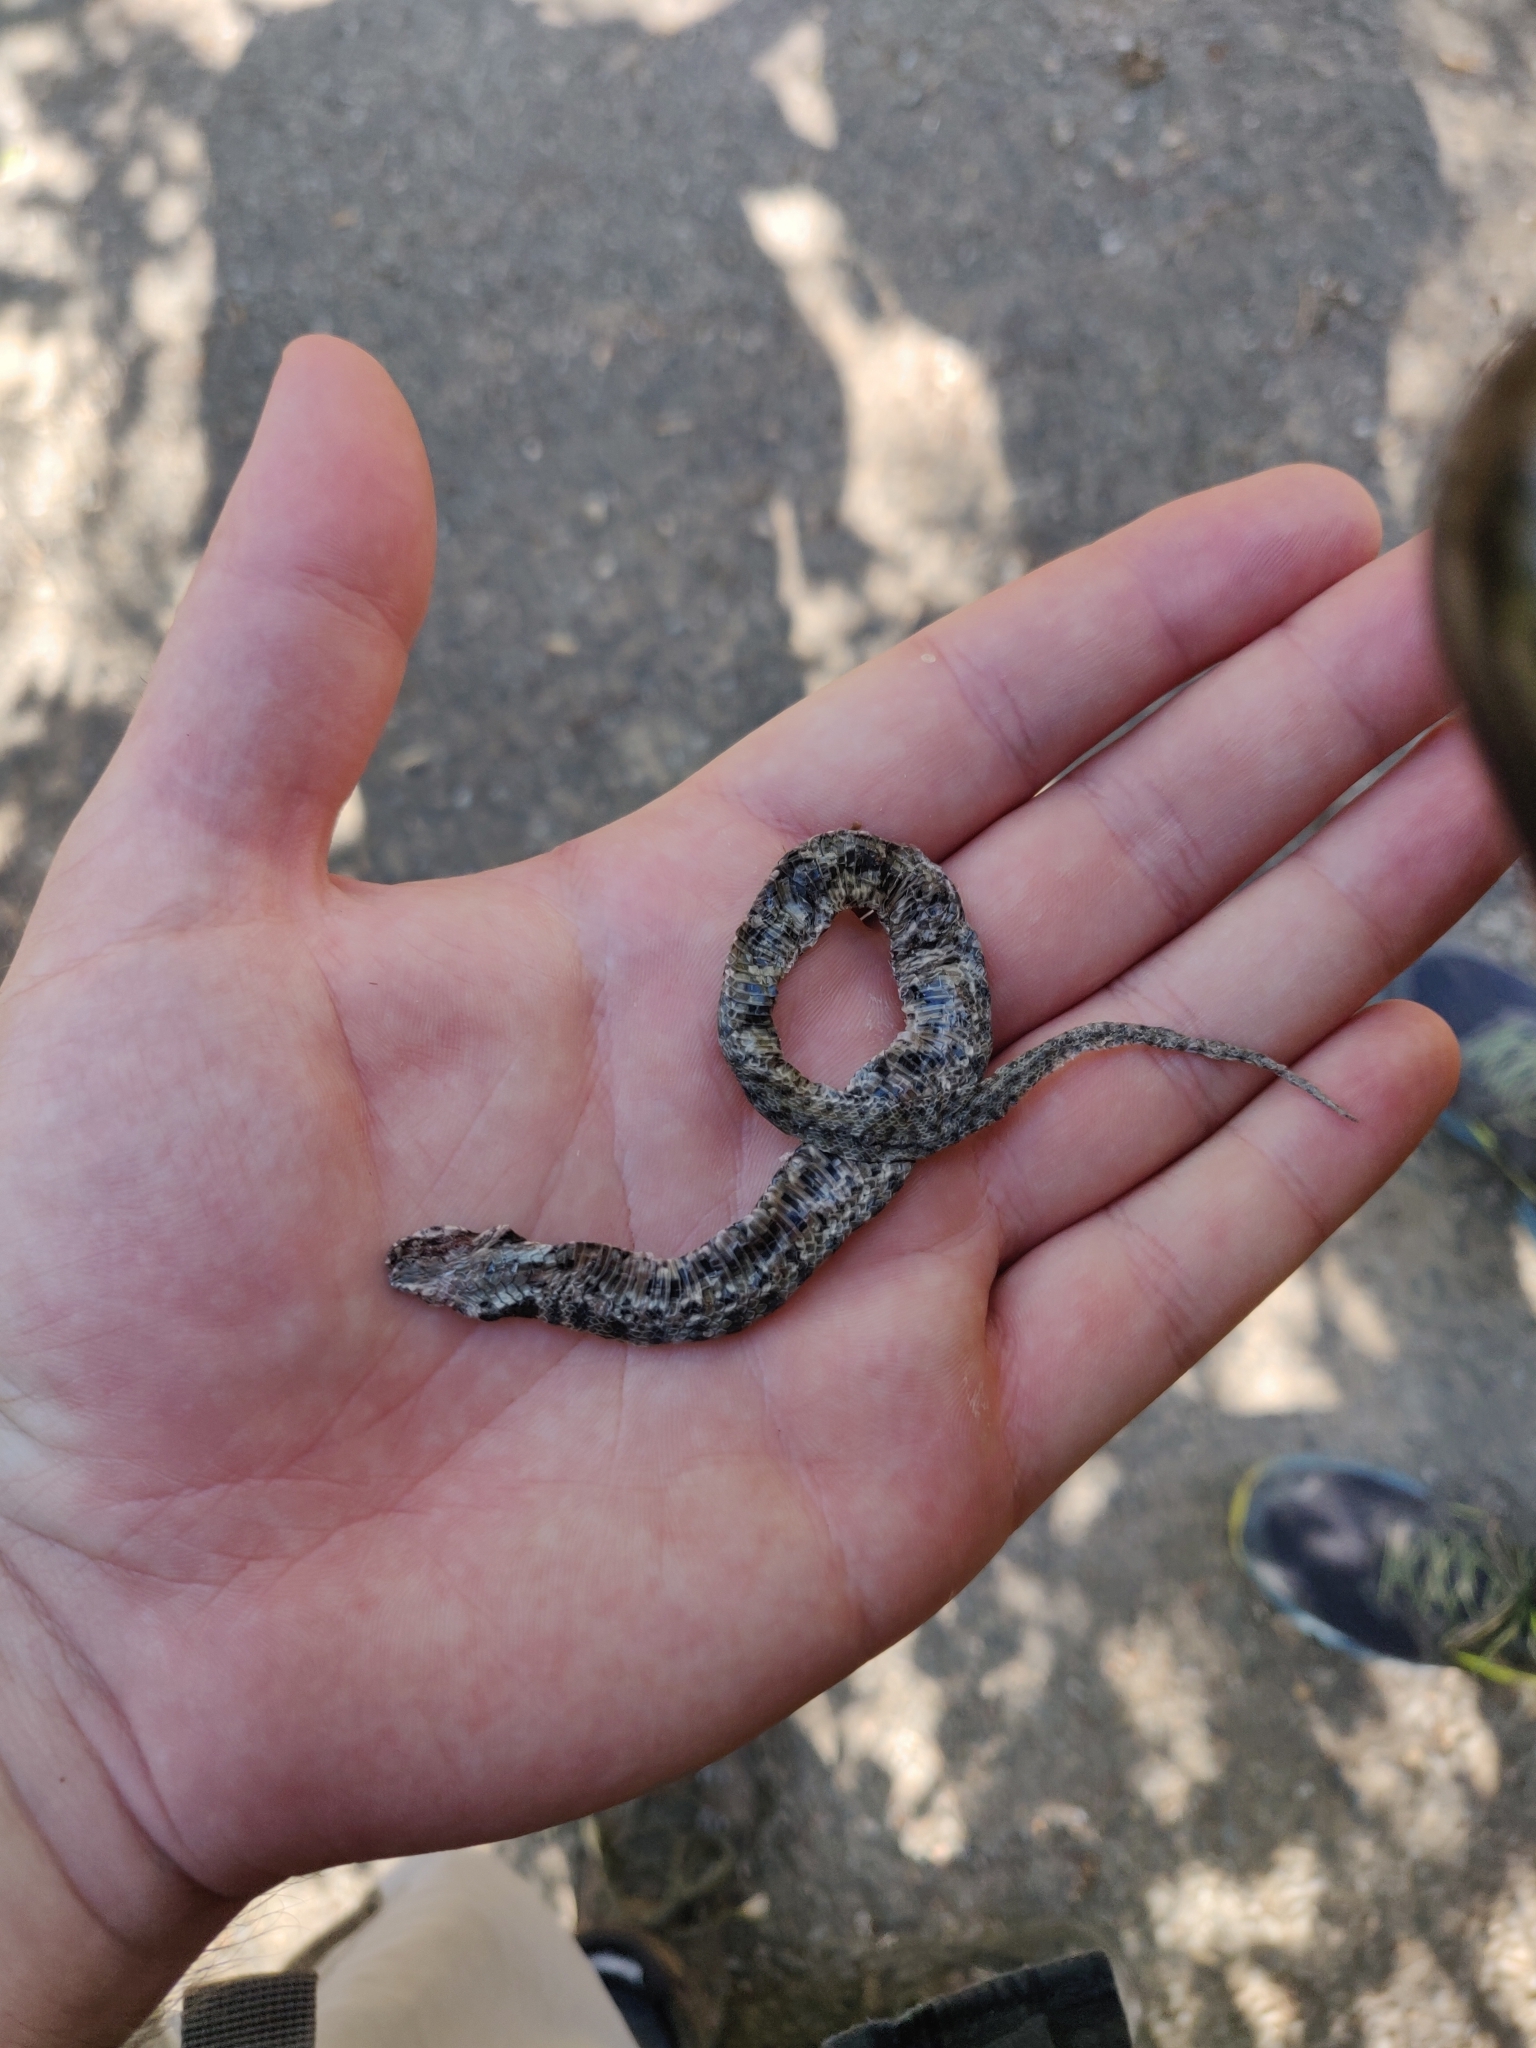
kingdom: Animalia
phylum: Chordata
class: Squamata
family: Colubridae
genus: Natrix
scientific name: Natrix maura
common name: Viperine water snake
